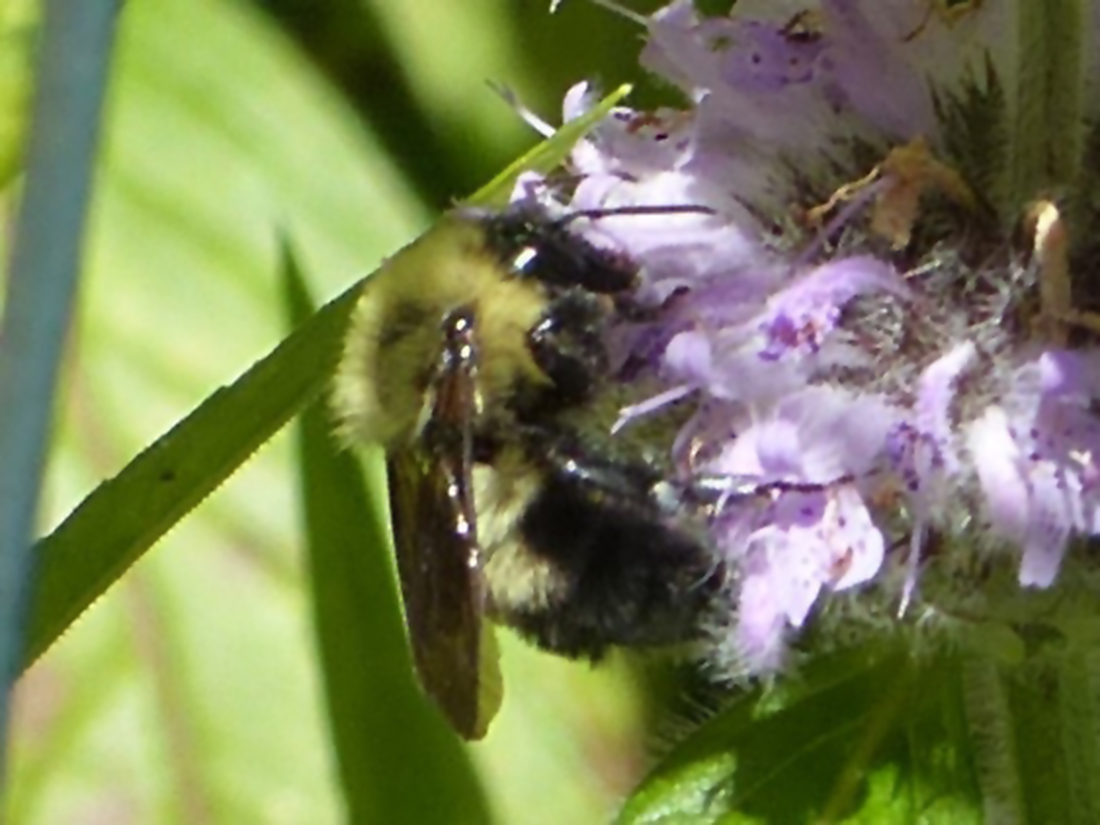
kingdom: Animalia
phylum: Arthropoda
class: Insecta
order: Hymenoptera
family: Apidae
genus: Bombus
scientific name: Bombus bimaculatus
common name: Two-spotted bumble bee
